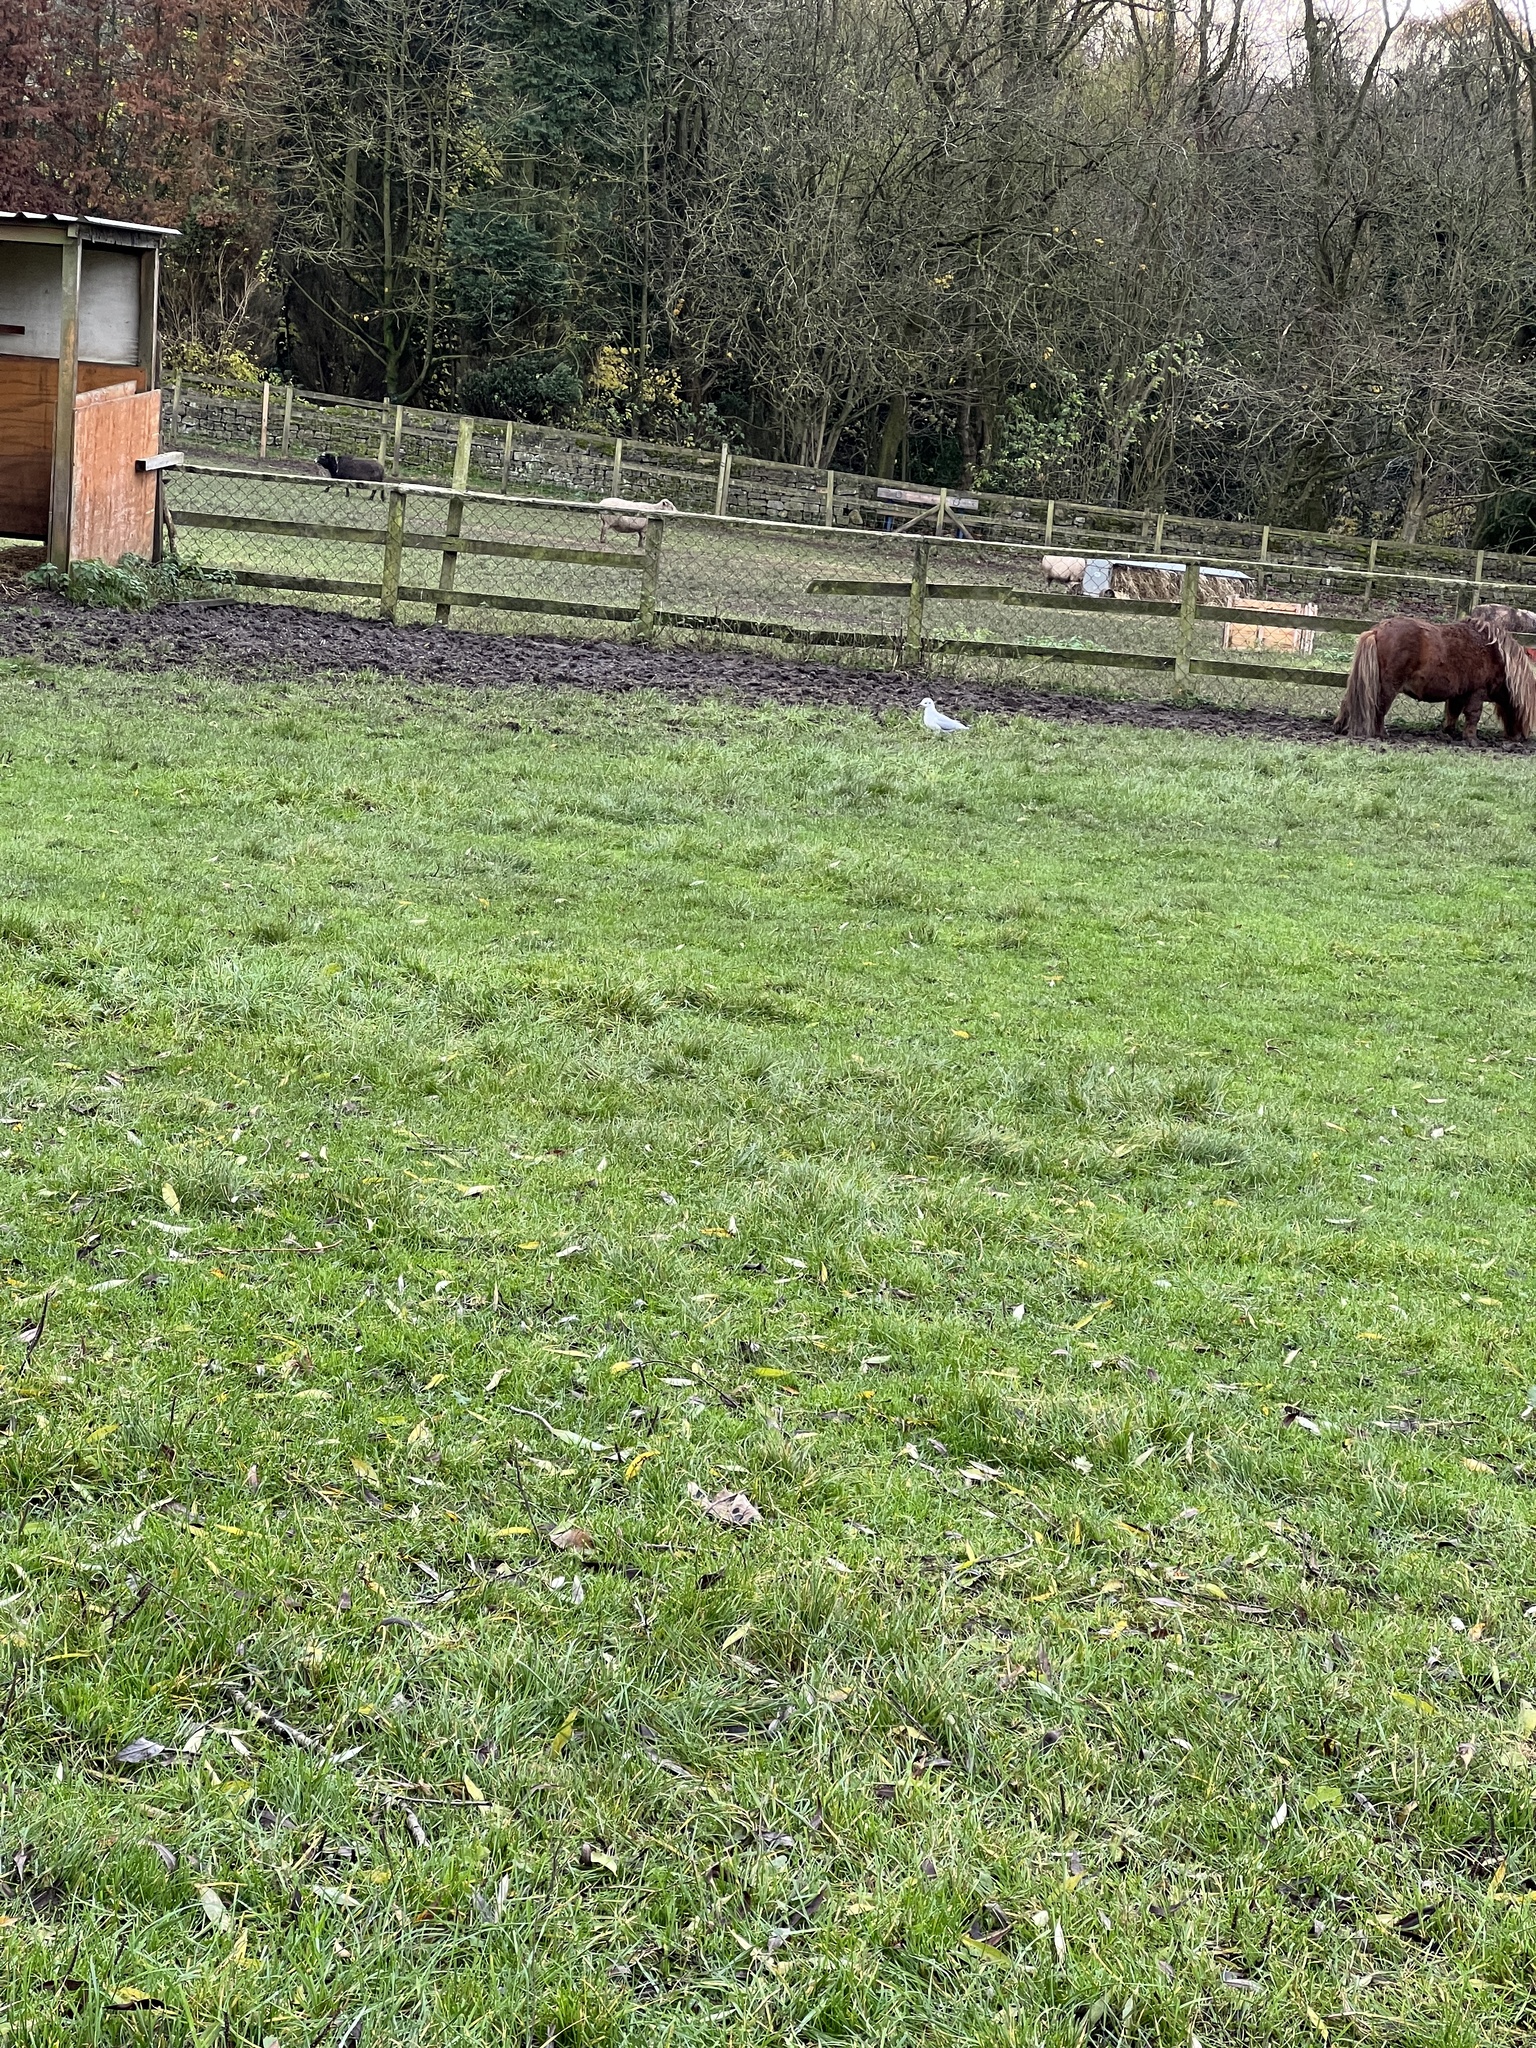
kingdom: Animalia
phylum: Chordata
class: Aves
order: Charadriiformes
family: Laridae
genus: Chroicocephalus
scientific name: Chroicocephalus ridibundus
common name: Black-headed gull
